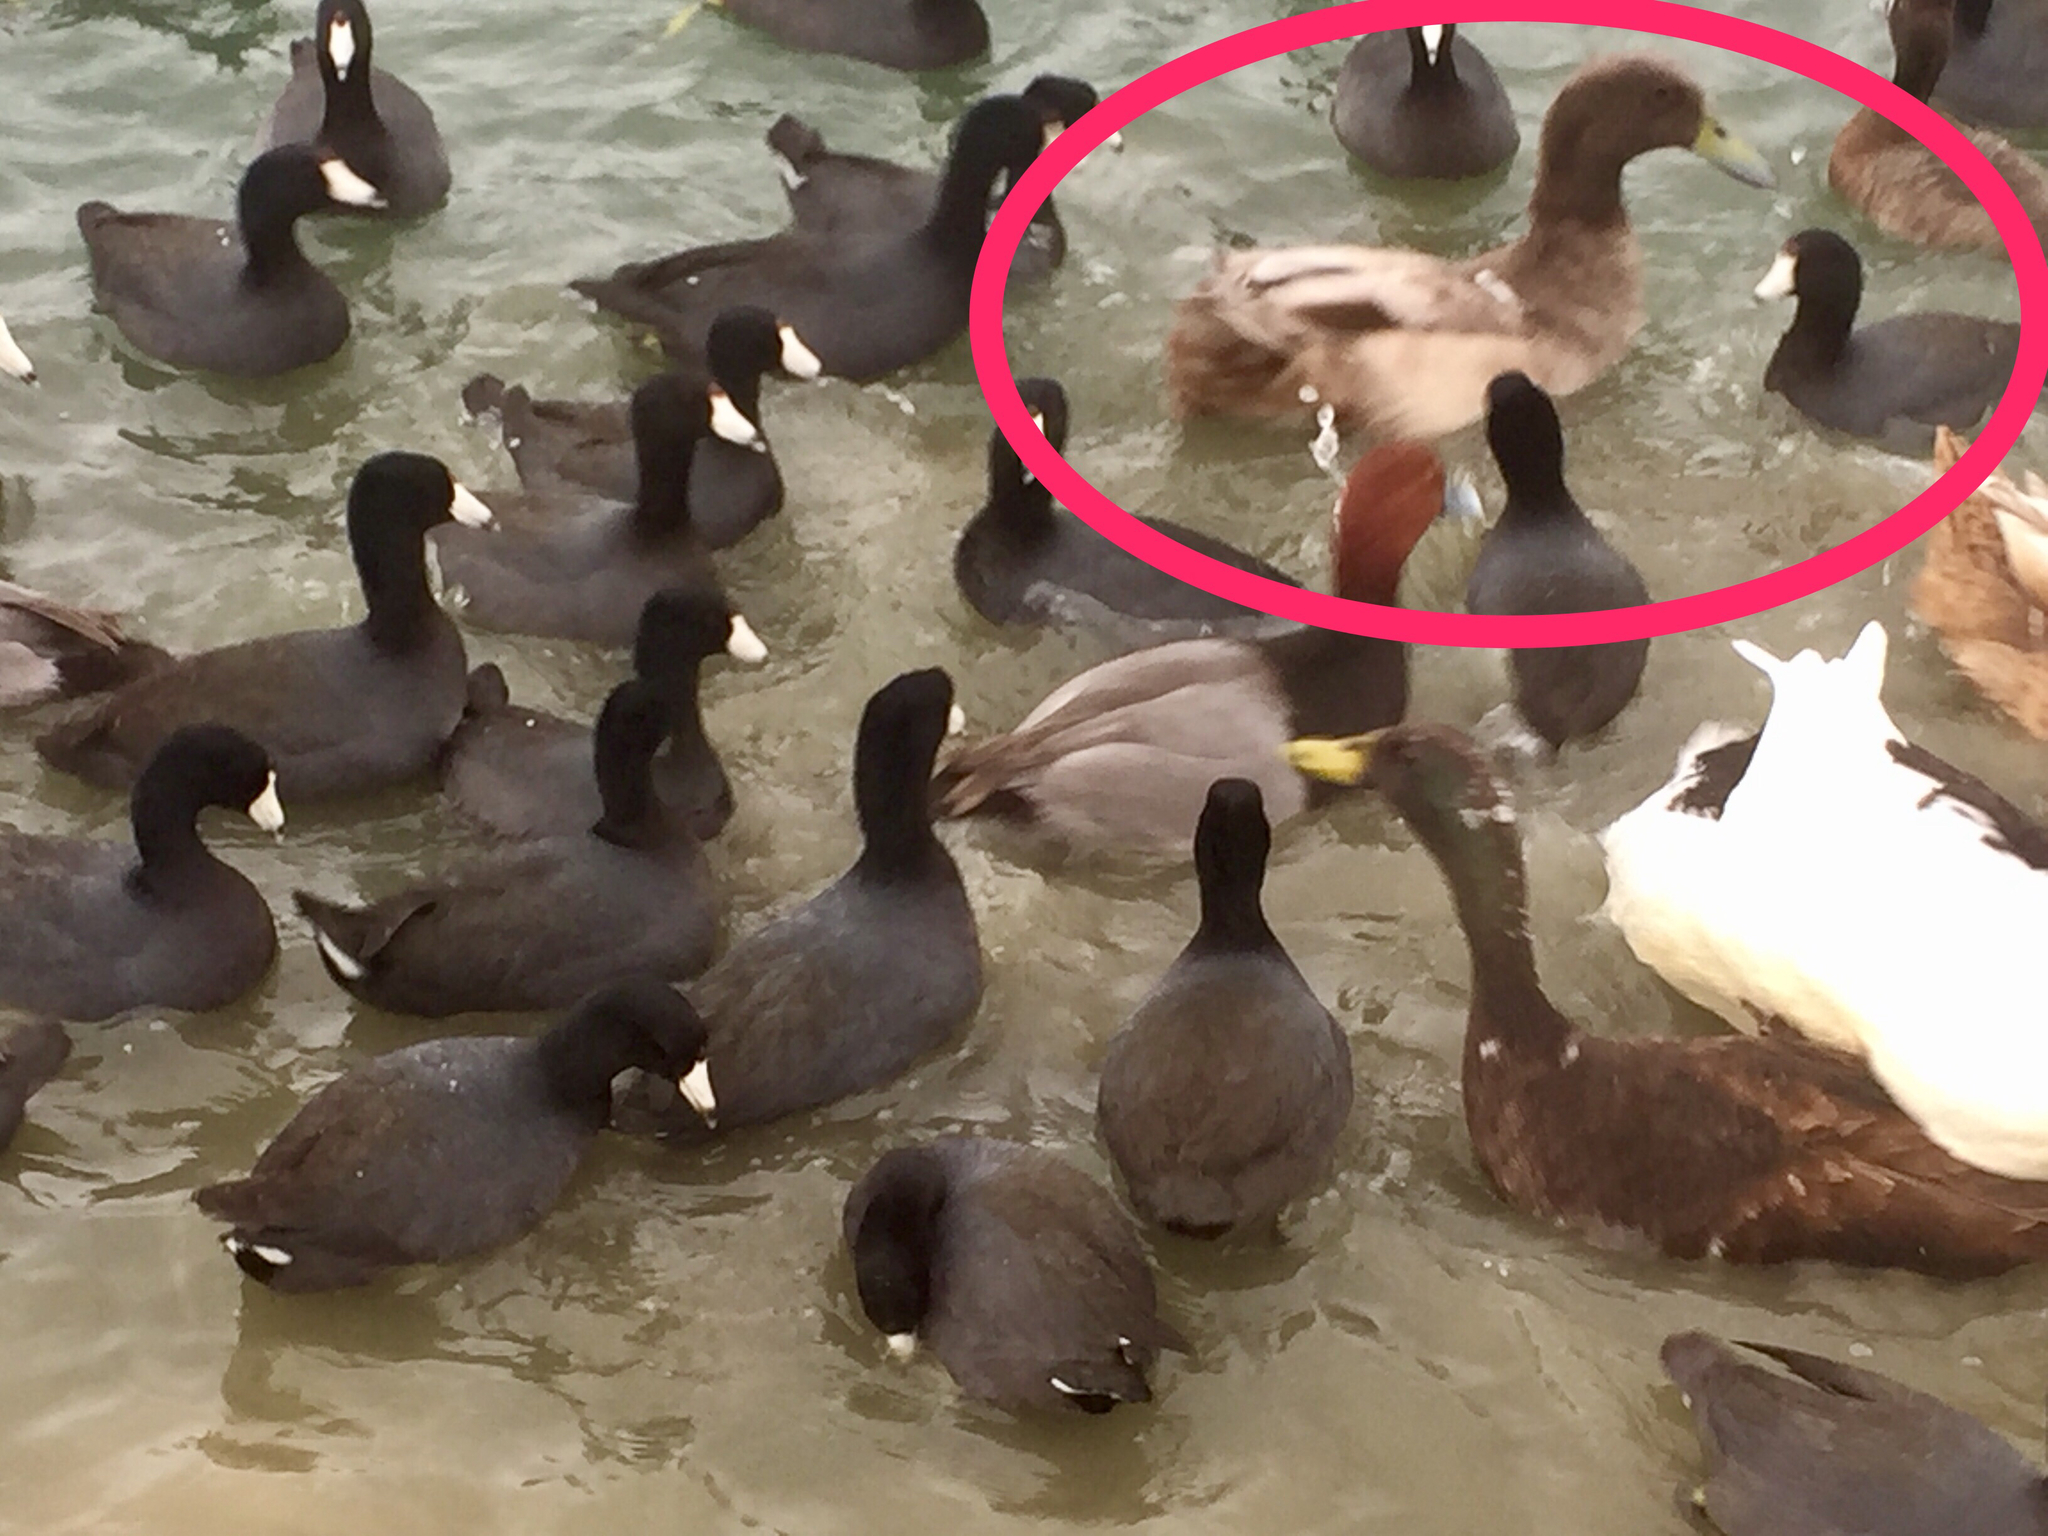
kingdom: Animalia
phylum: Chordata
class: Aves
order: Anseriformes
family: Anatidae
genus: Anas
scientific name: Anas platyrhynchos
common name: Mallard
